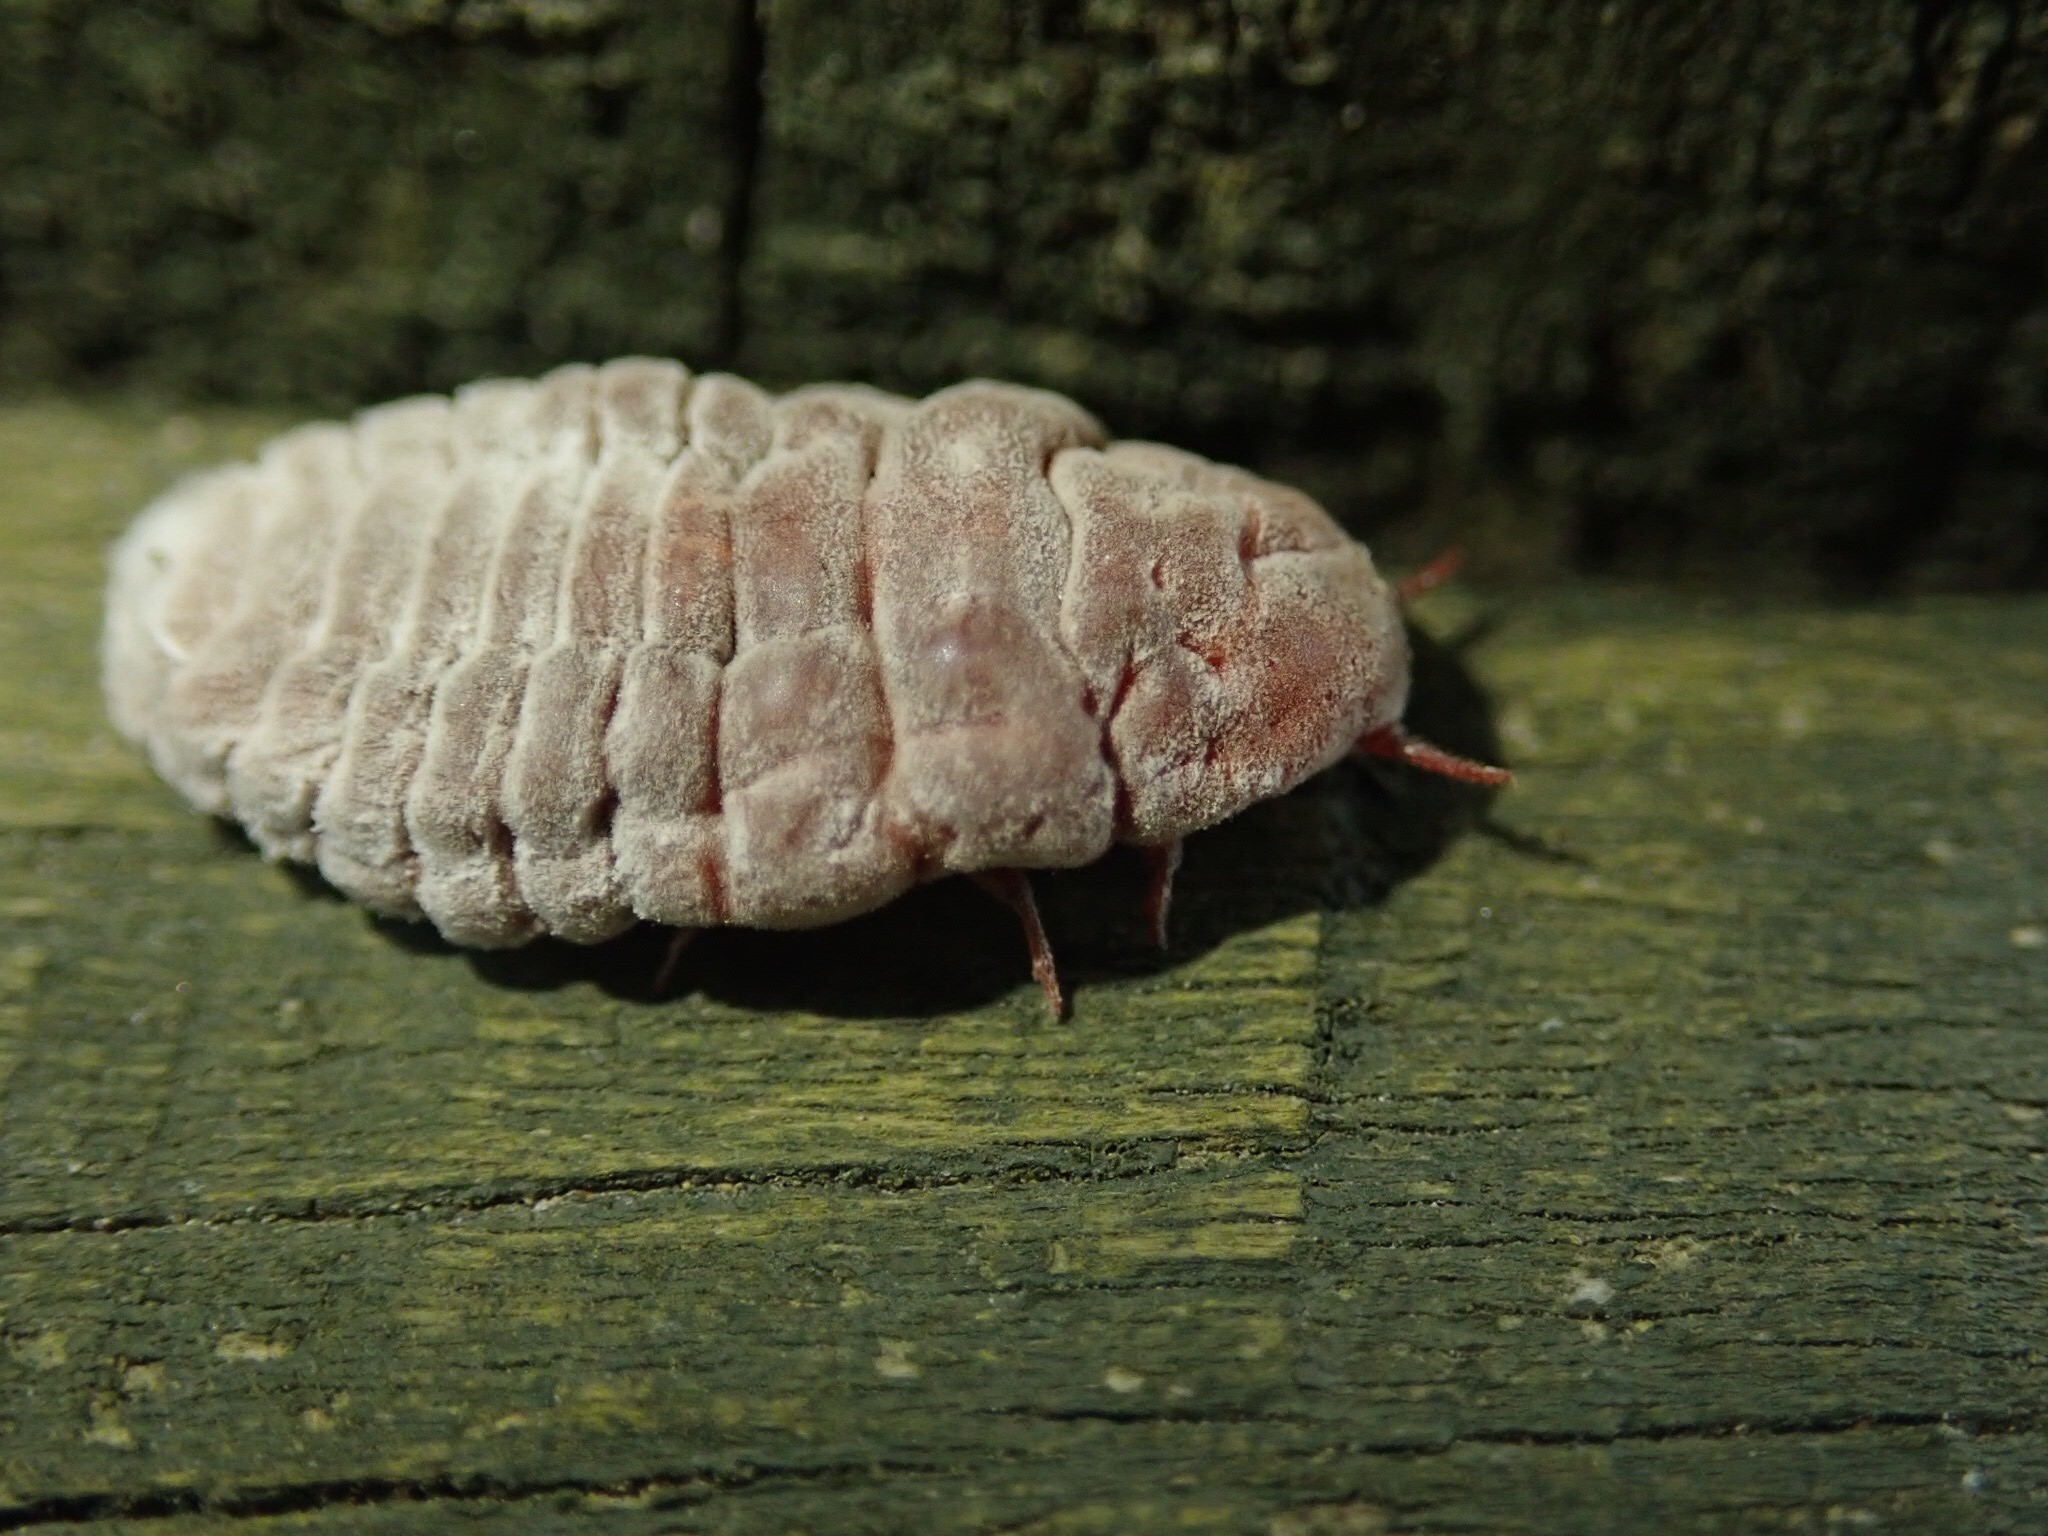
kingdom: Animalia
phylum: Arthropoda
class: Insecta
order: Hemiptera
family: Margarodidae
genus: Coelostomidia
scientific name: Coelostomidia zealandica
